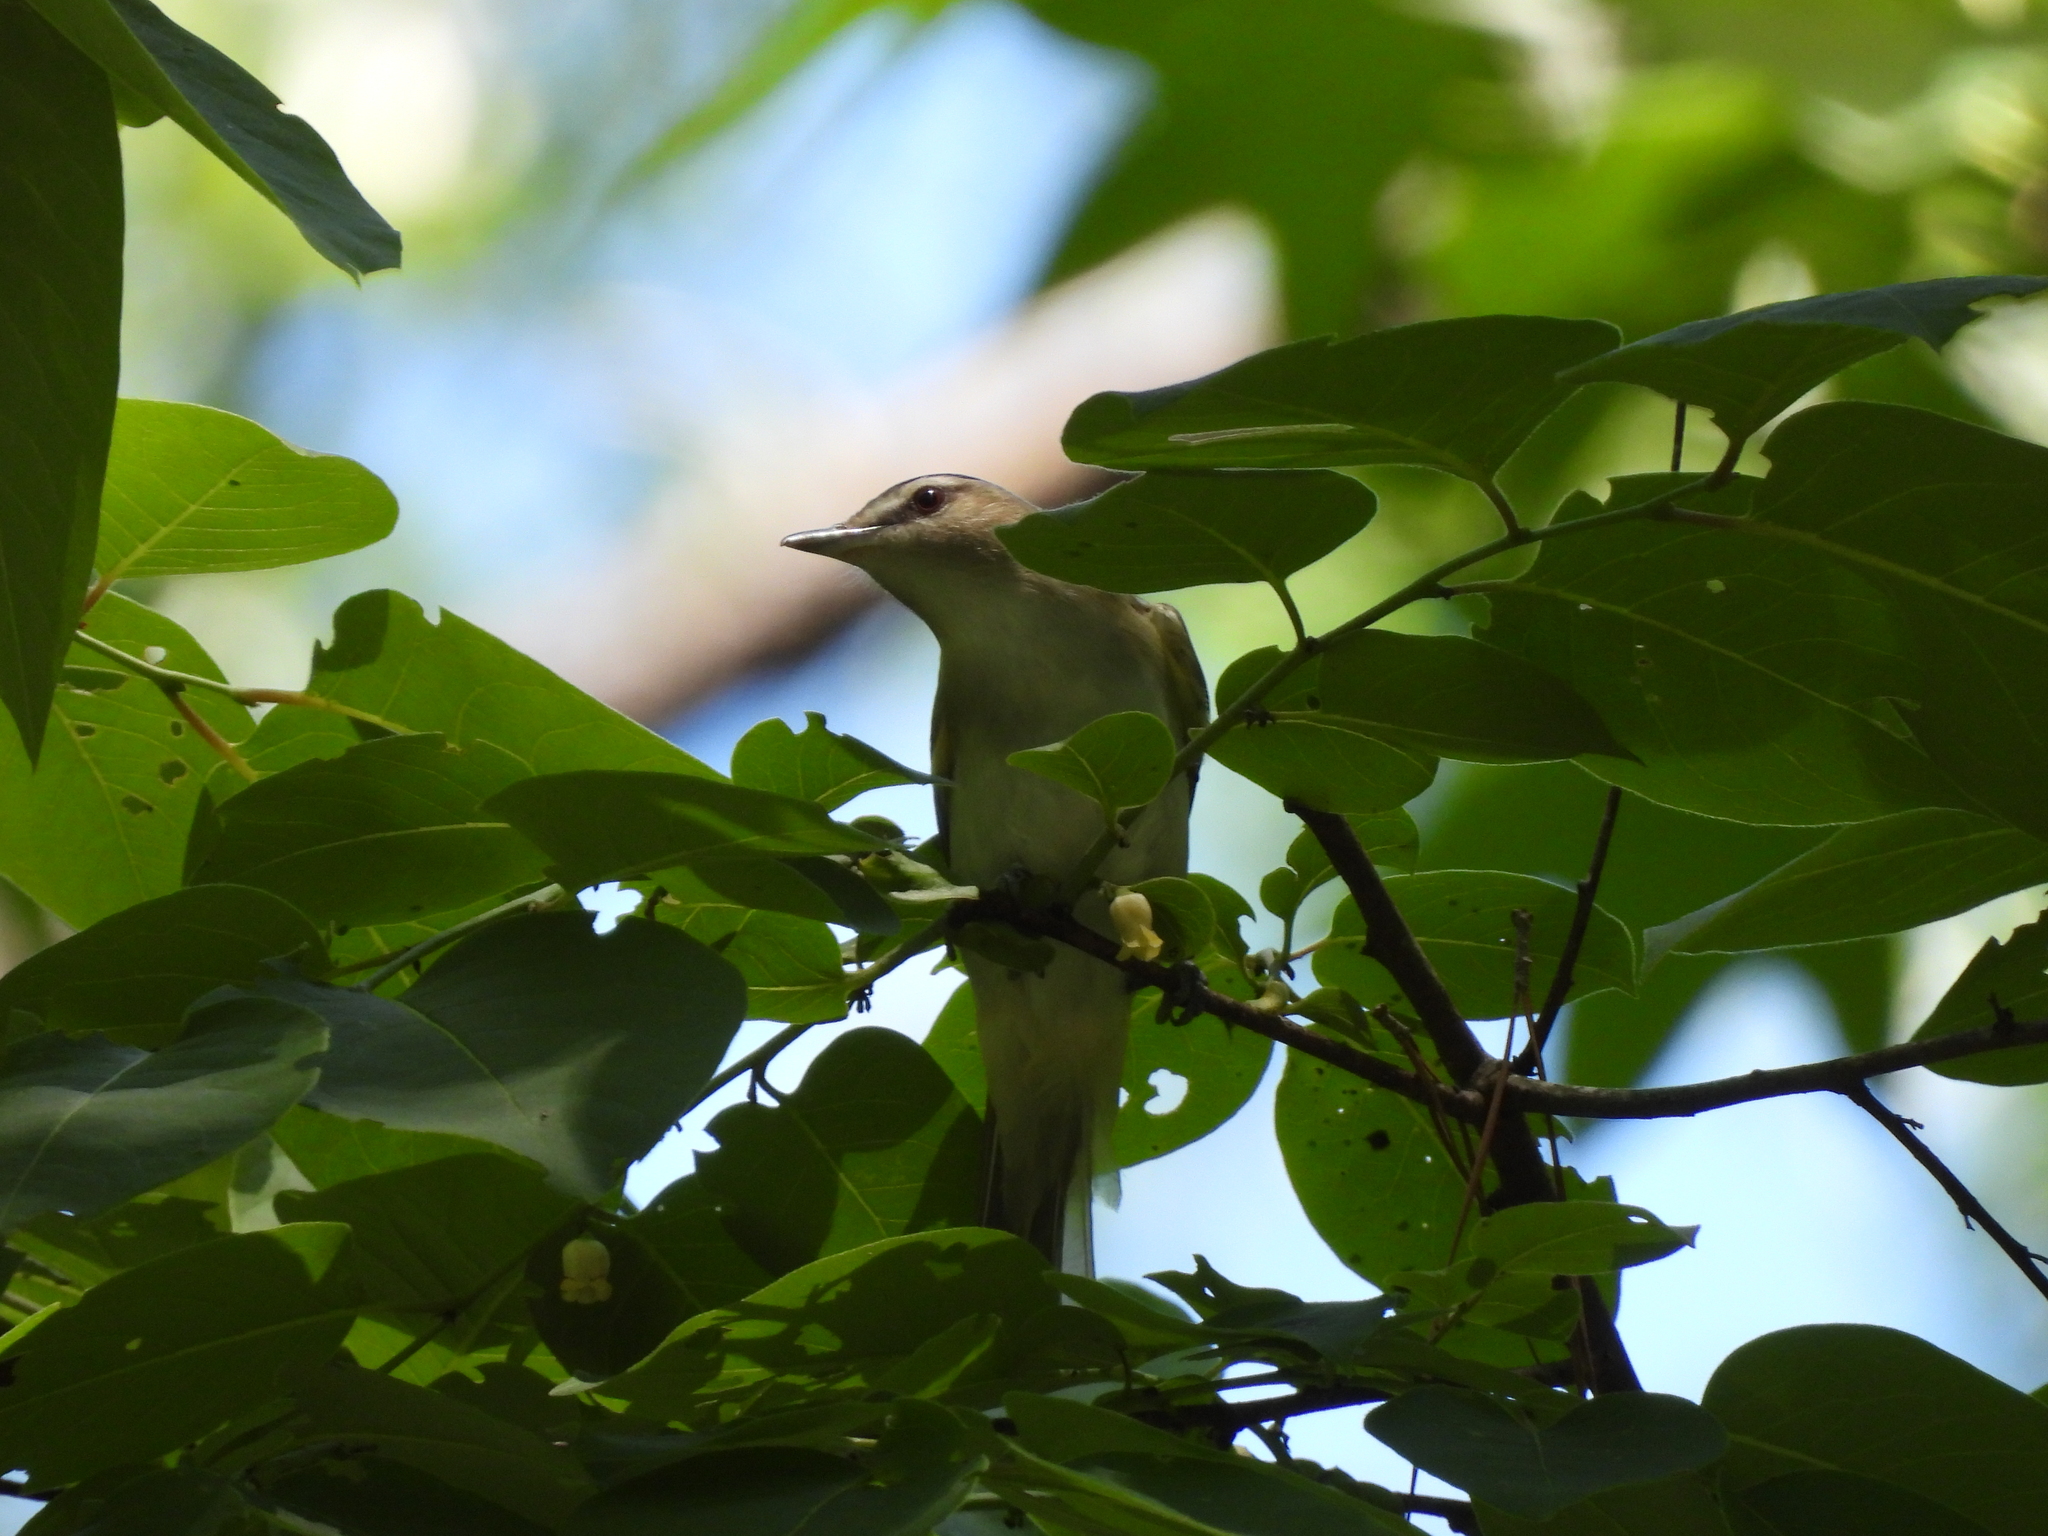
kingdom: Animalia
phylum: Chordata
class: Aves
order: Passeriformes
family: Vireonidae
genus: Vireo
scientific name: Vireo olivaceus
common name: Red-eyed vireo
